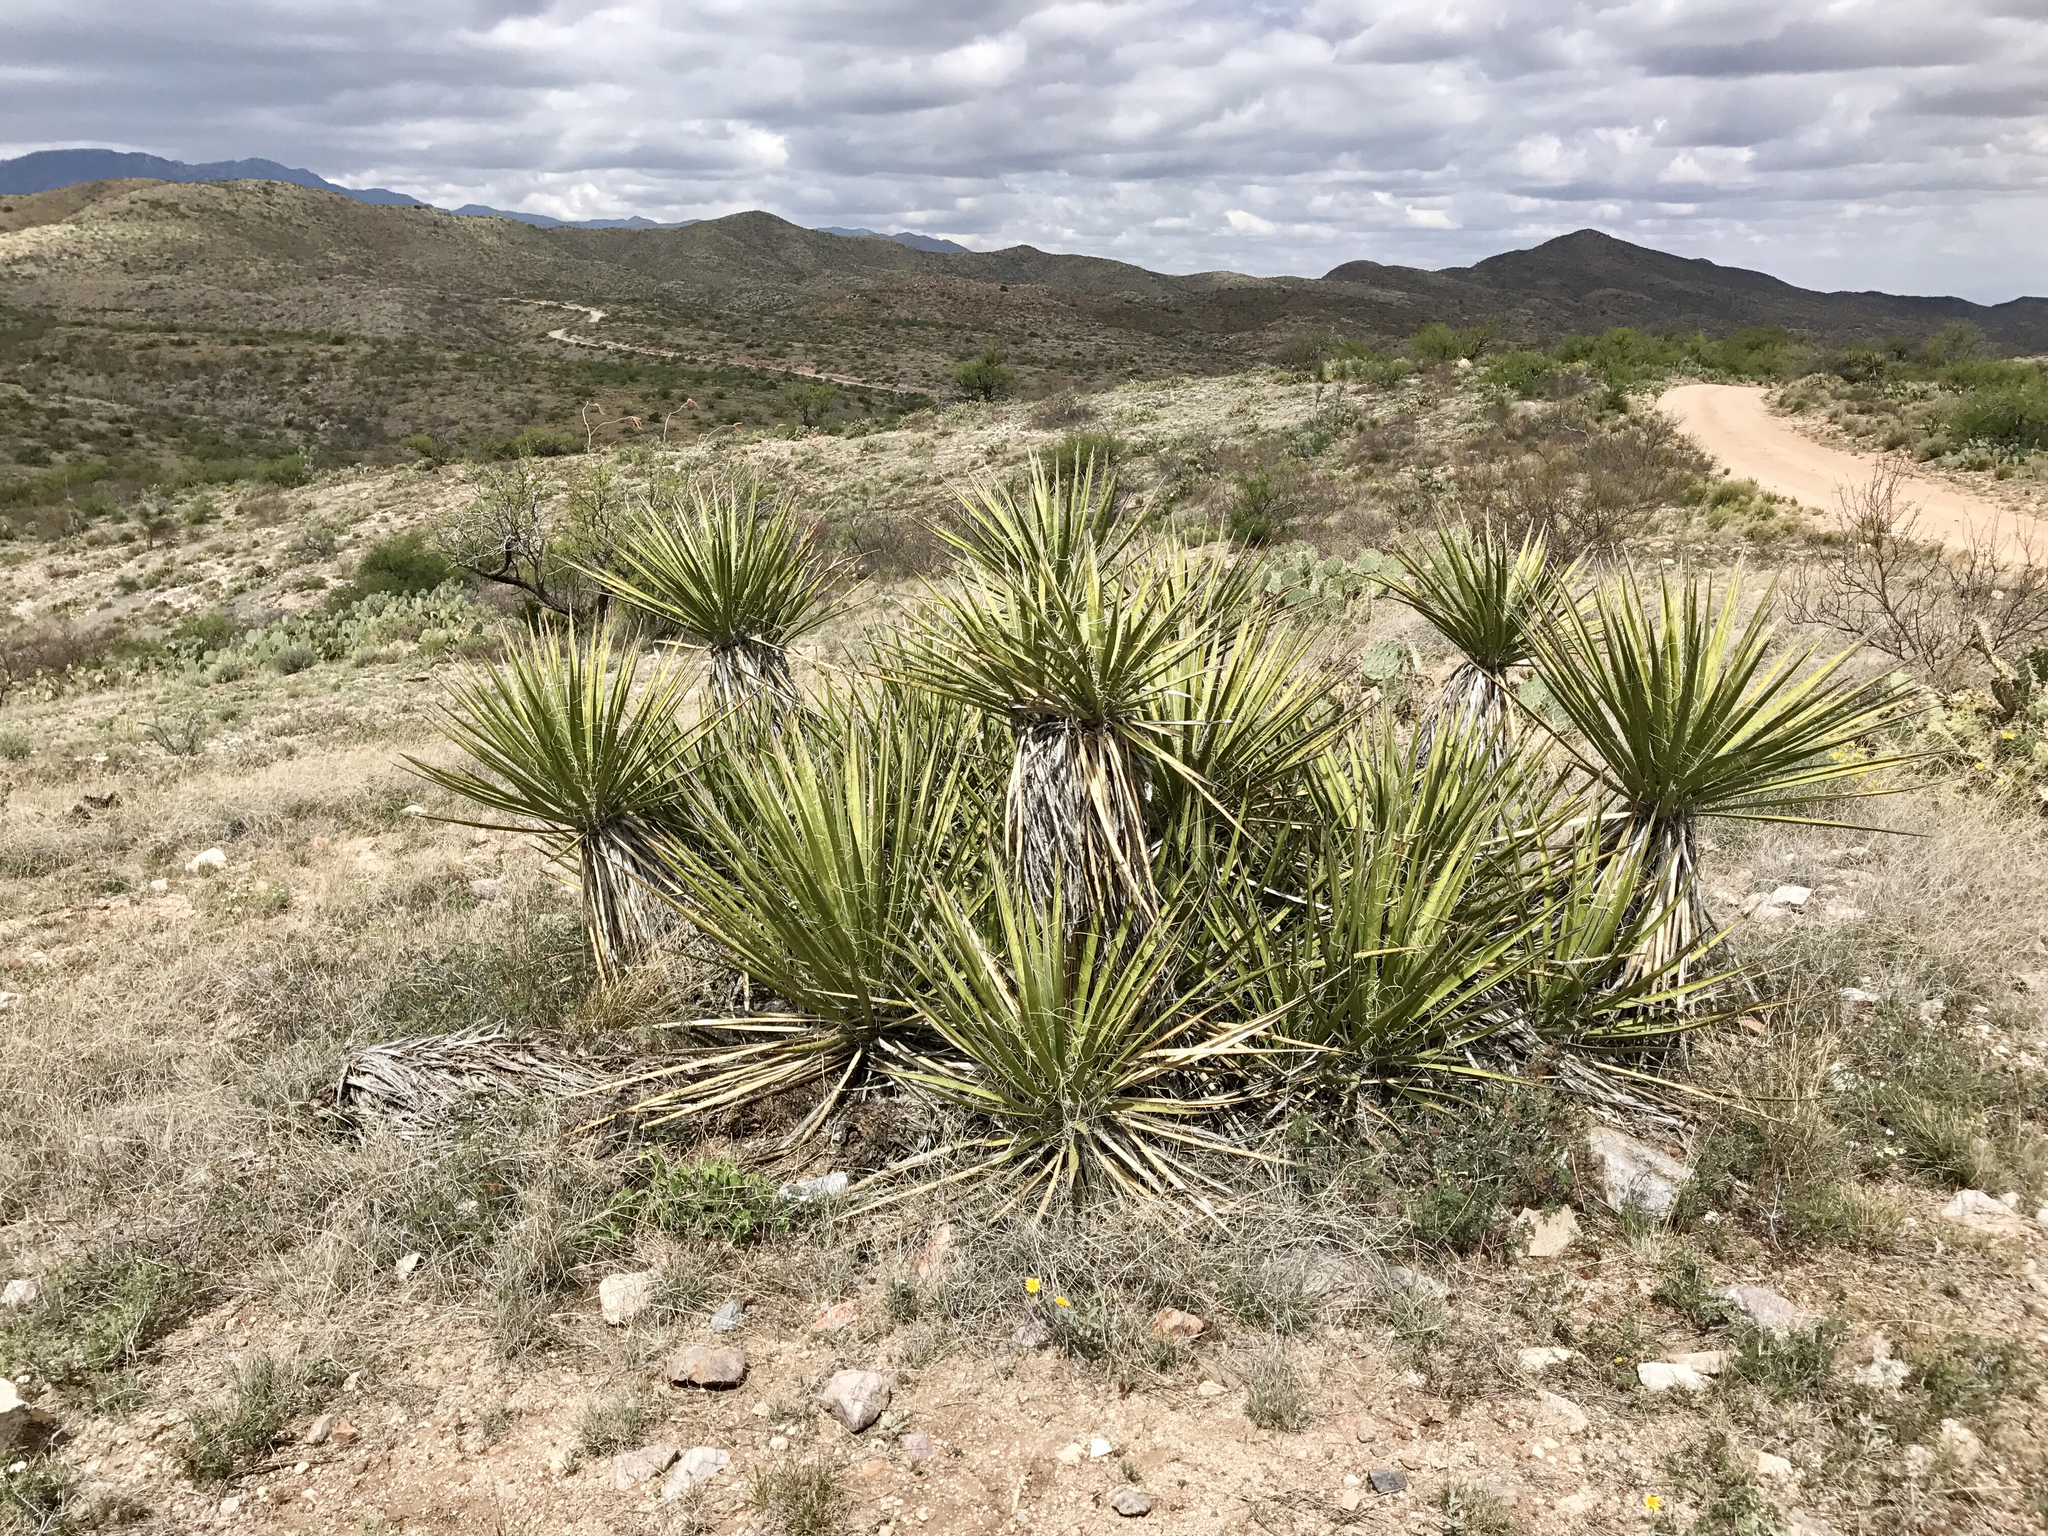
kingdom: Plantae
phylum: Tracheophyta
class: Liliopsida
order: Asparagales
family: Asparagaceae
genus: Yucca
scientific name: Yucca baccata
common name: Banana yucca
